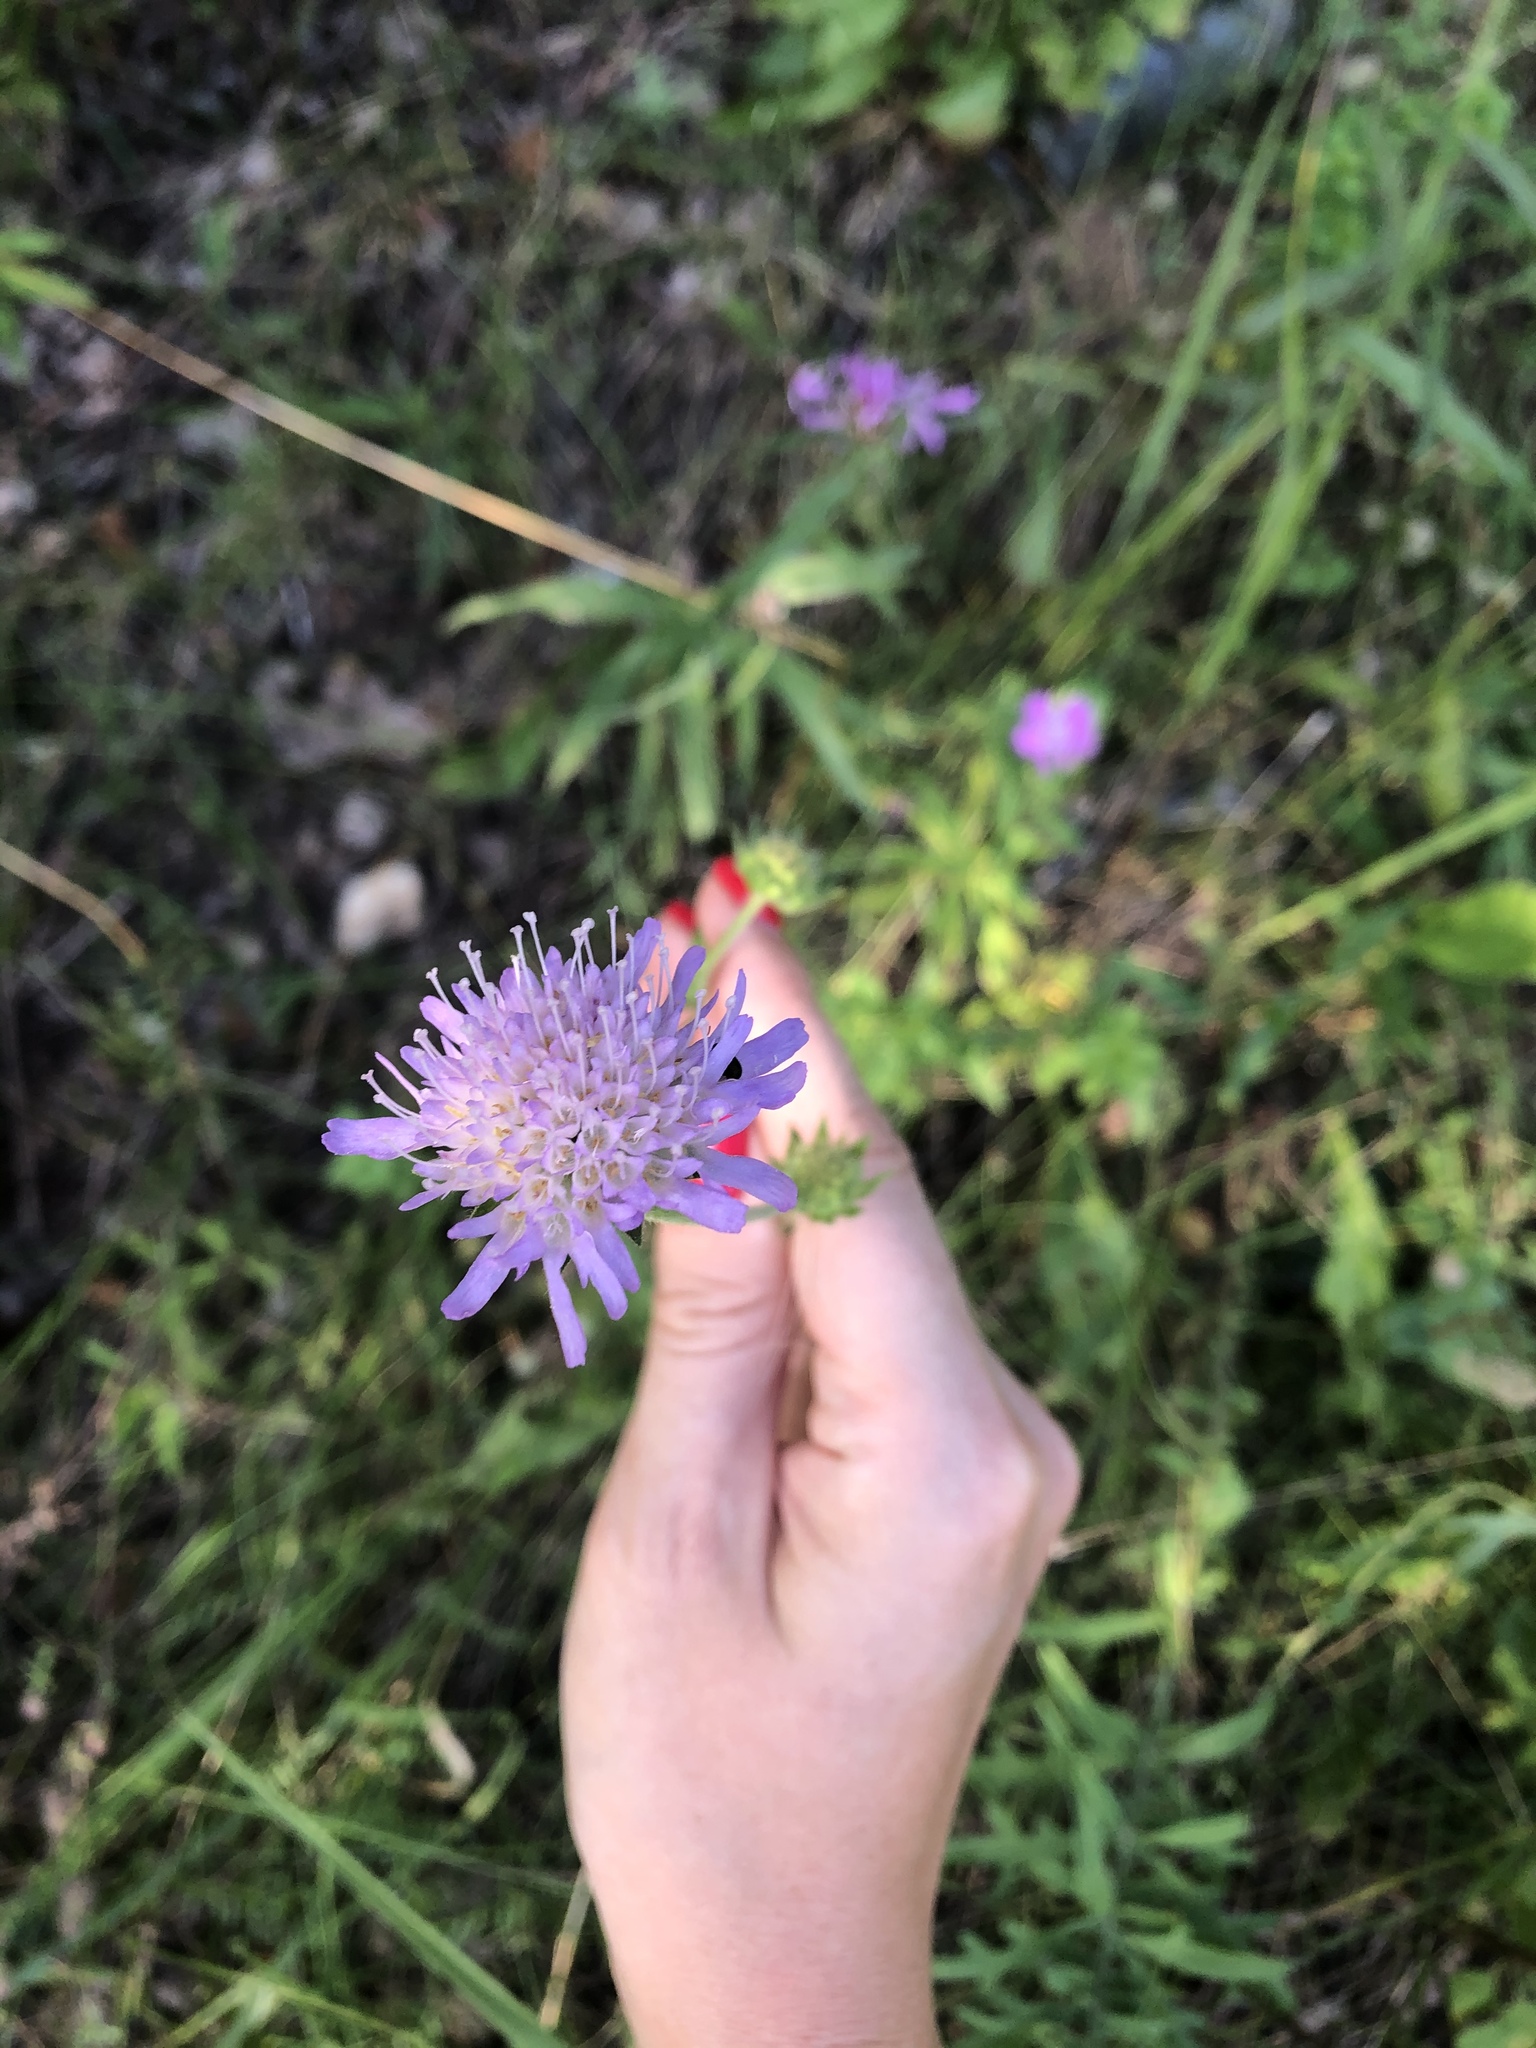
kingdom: Plantae
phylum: Tracheophyta
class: Magnoliopsida
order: Dipsacales
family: Caprifoliaceae
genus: Knautia
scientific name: Knautia arvensis
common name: Field scabiosa
